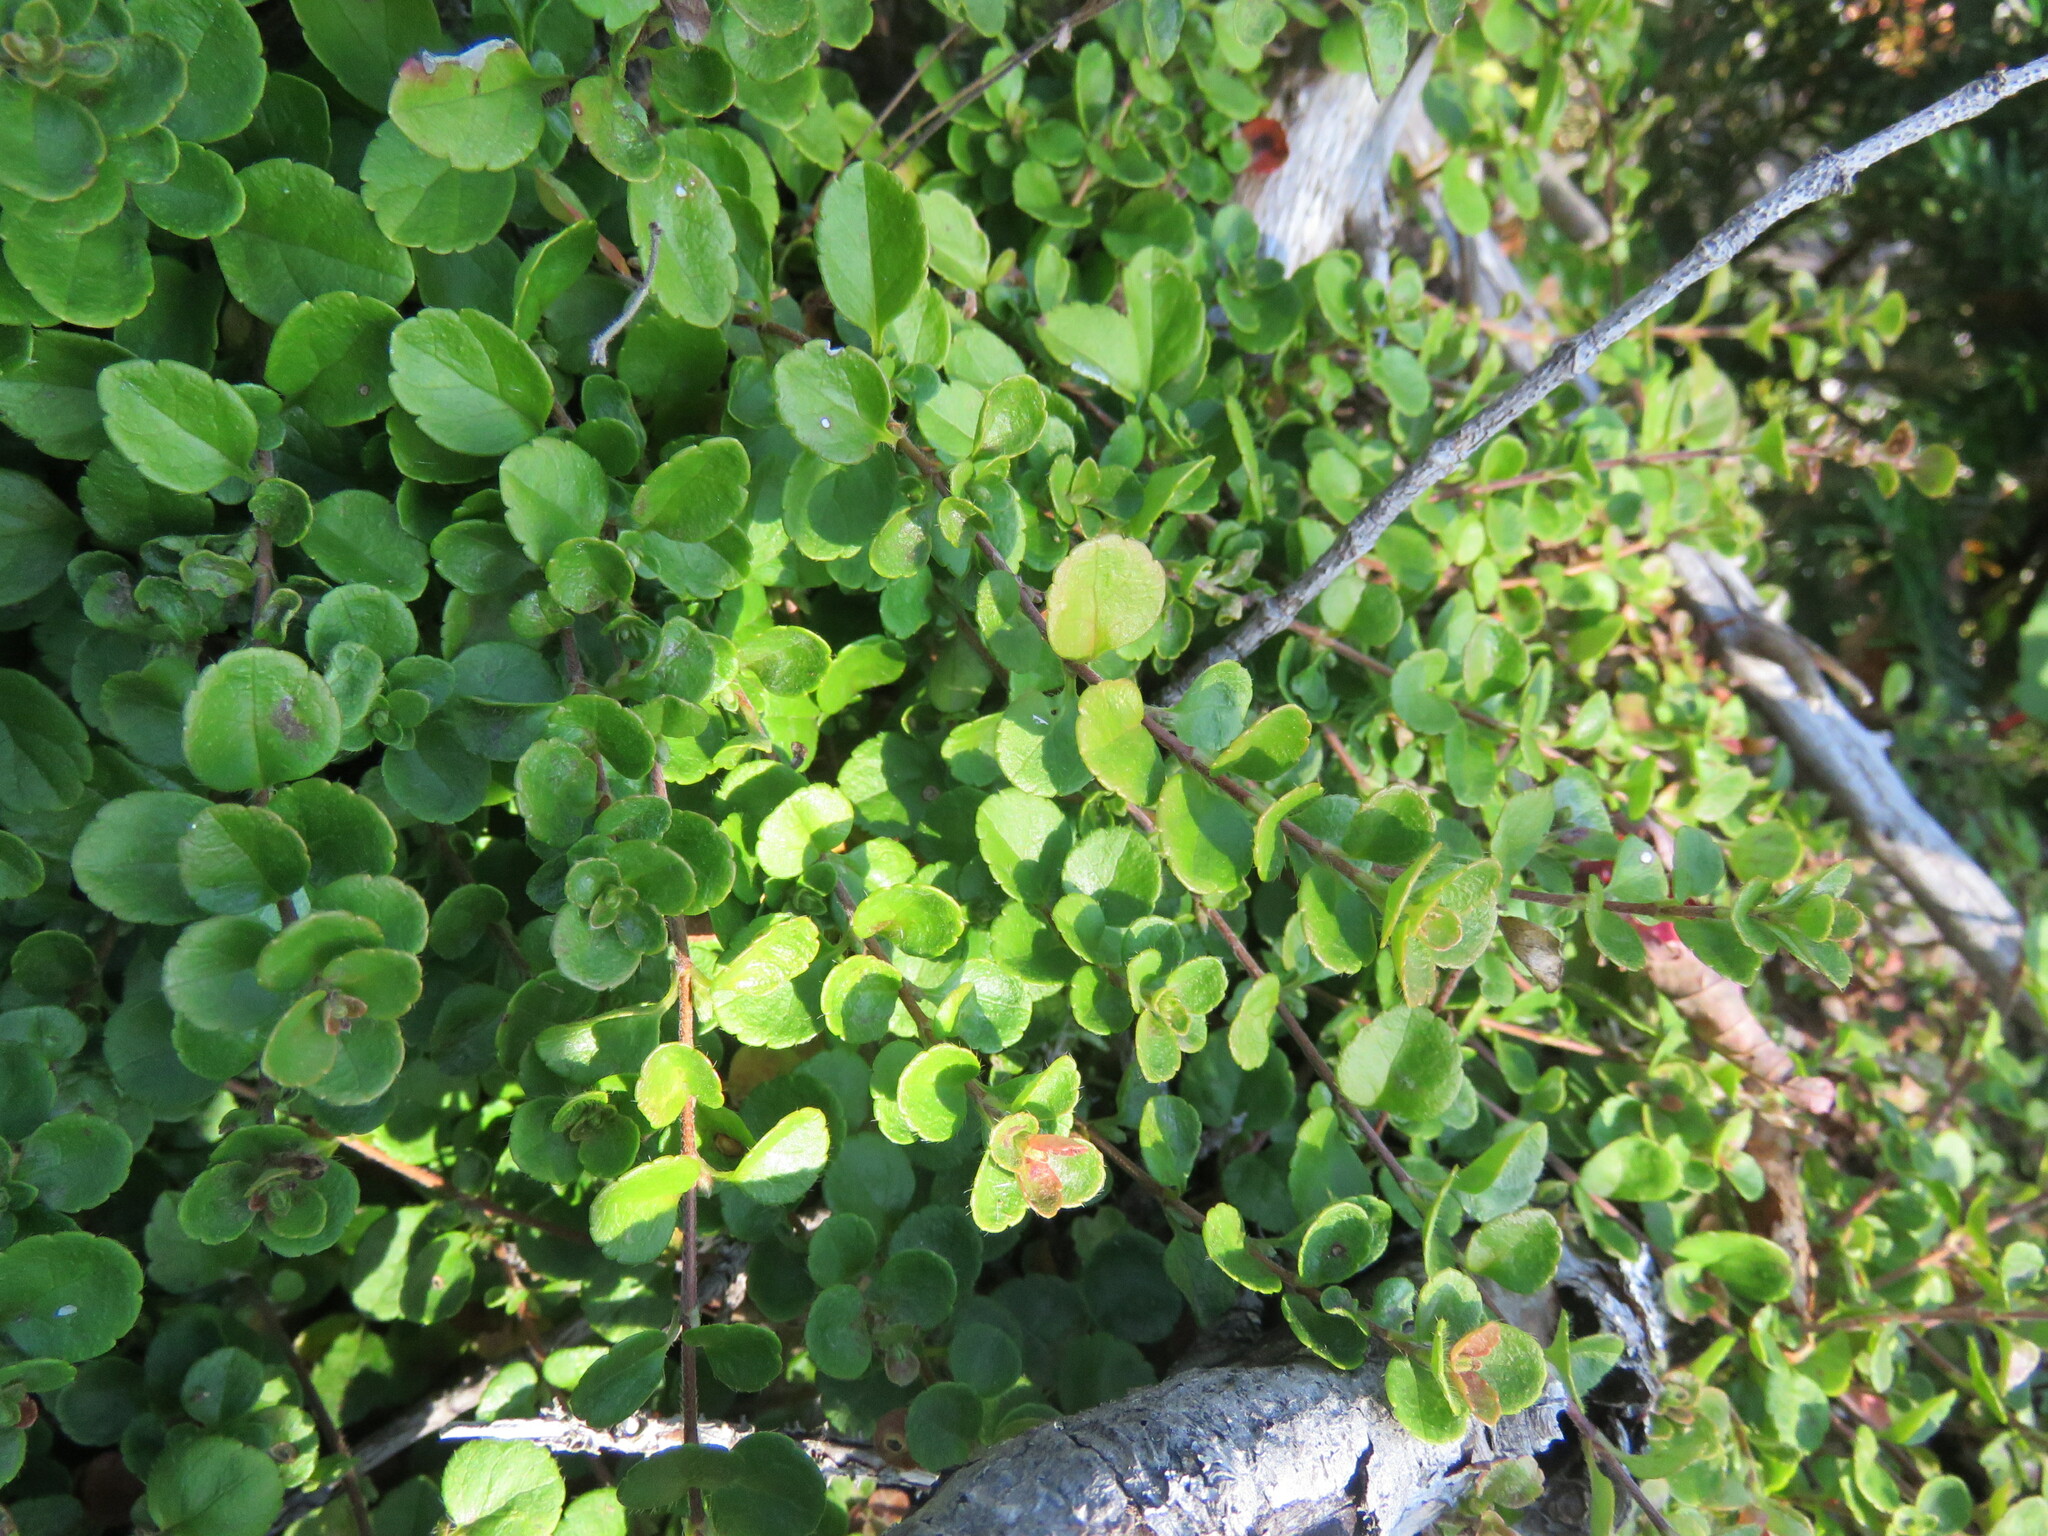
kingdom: Plantae
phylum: Tracheophyta
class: Magnoliopsida
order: Dipsacales
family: Caprifoliaceae
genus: Linnaea
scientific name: Linnaea borealis
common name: Twinflower
